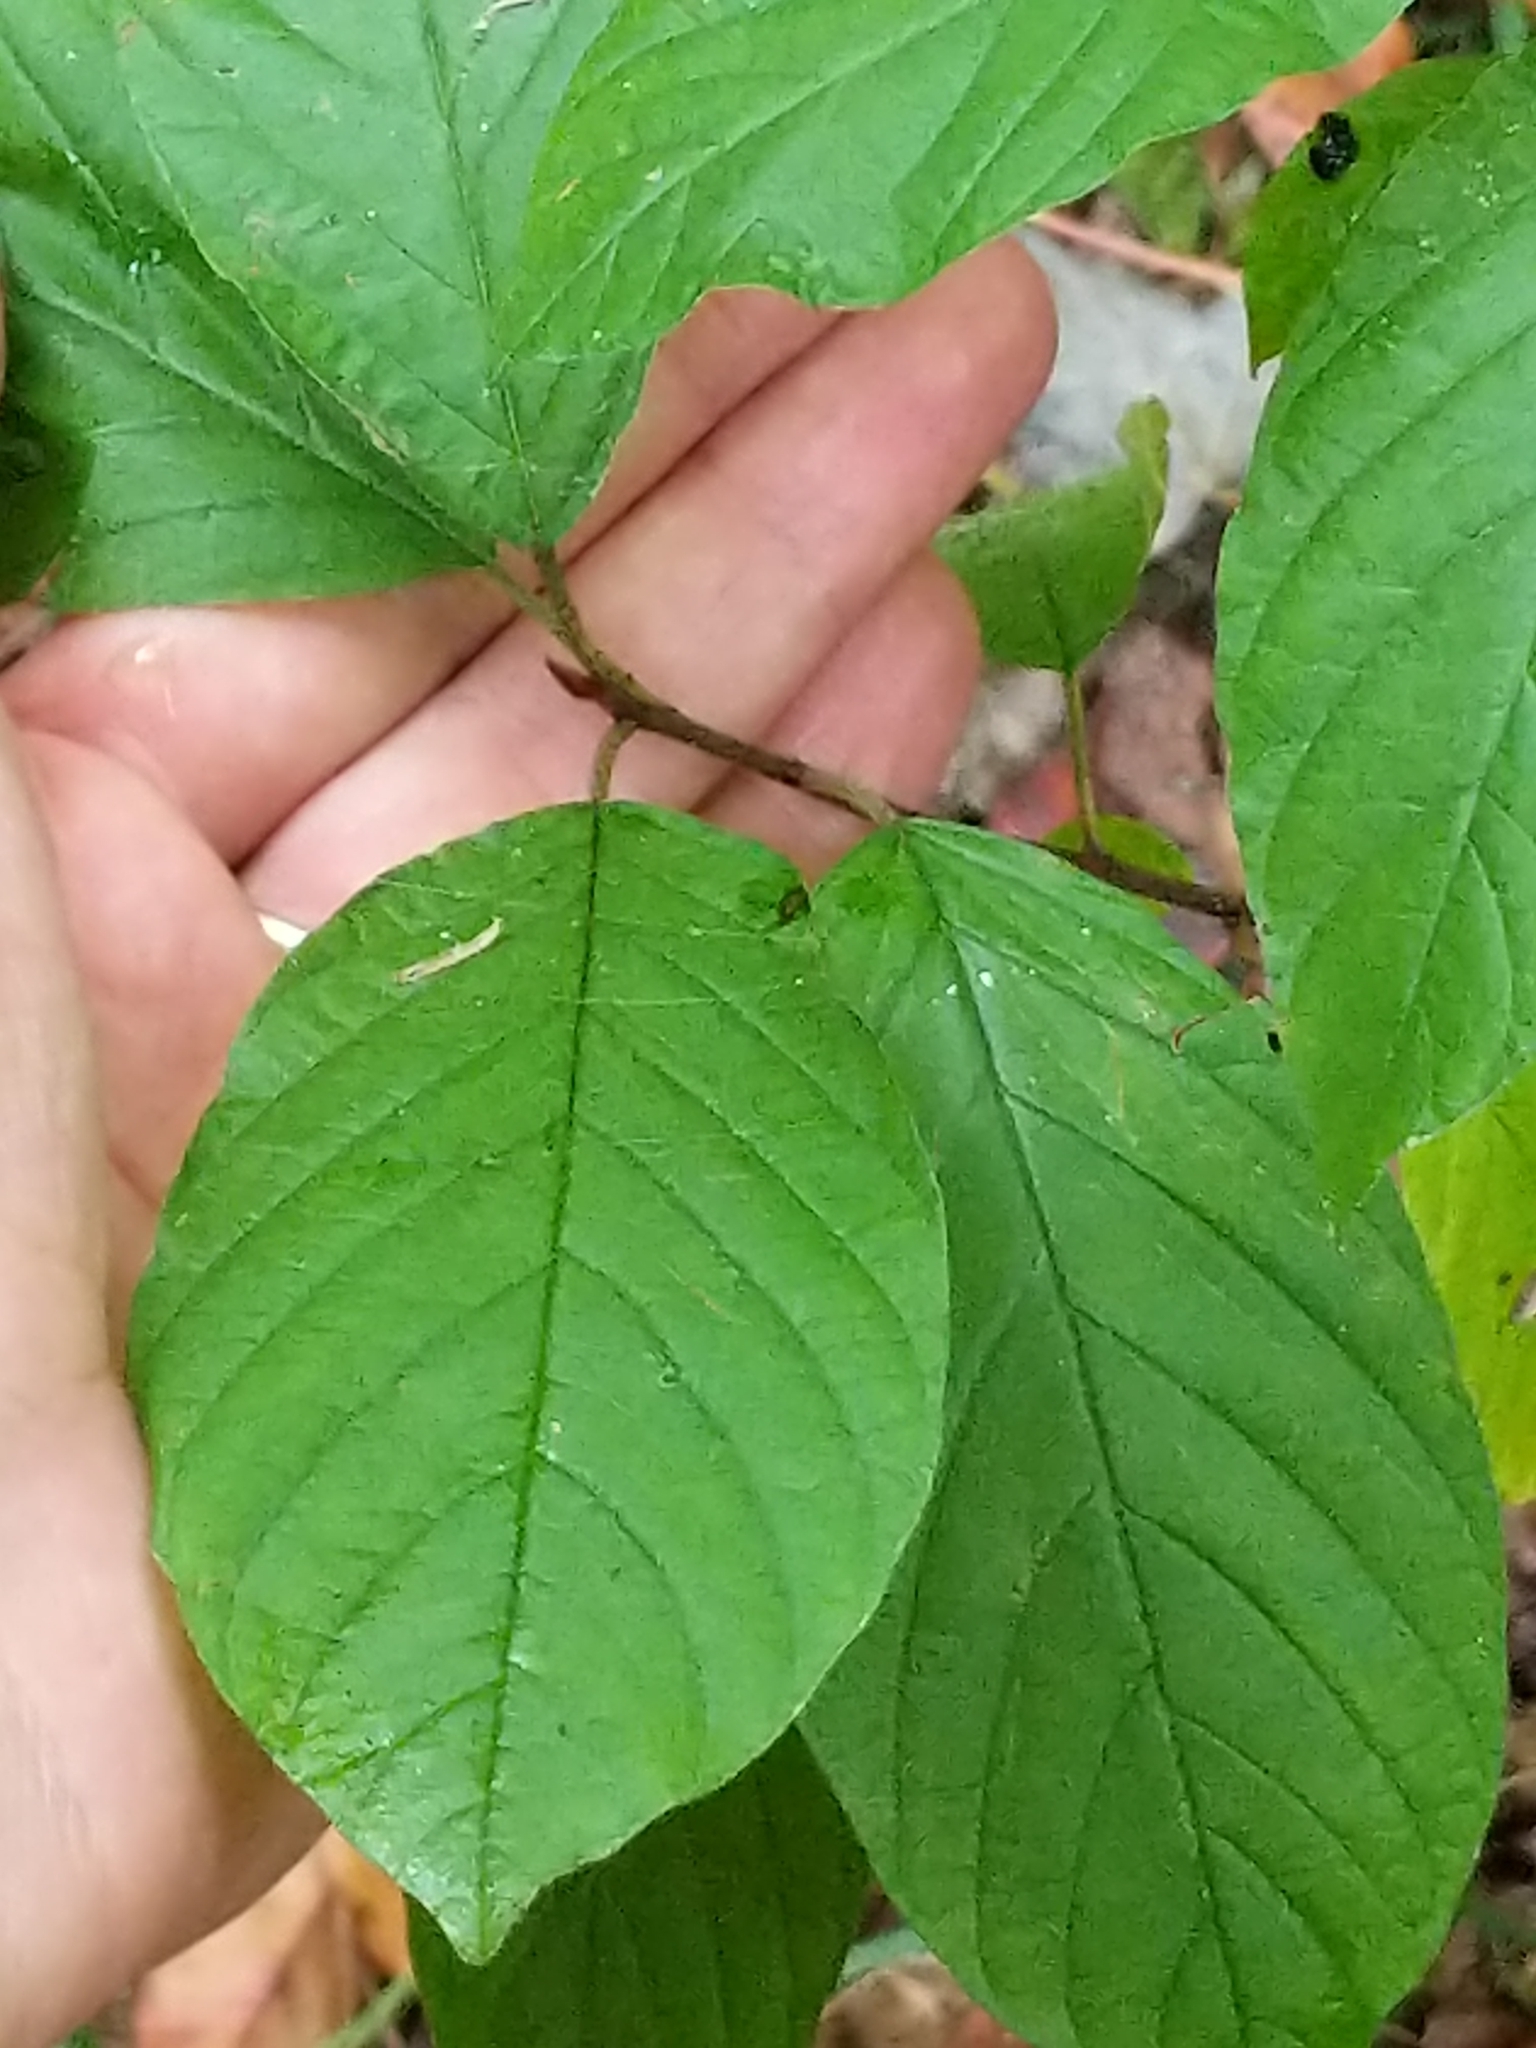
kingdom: Plantae
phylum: Tracheophyta
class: Magnoliopsida
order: Rosales
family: Rhamnaceae
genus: Frangula
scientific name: Frangula alnus
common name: Alder buckthorn
